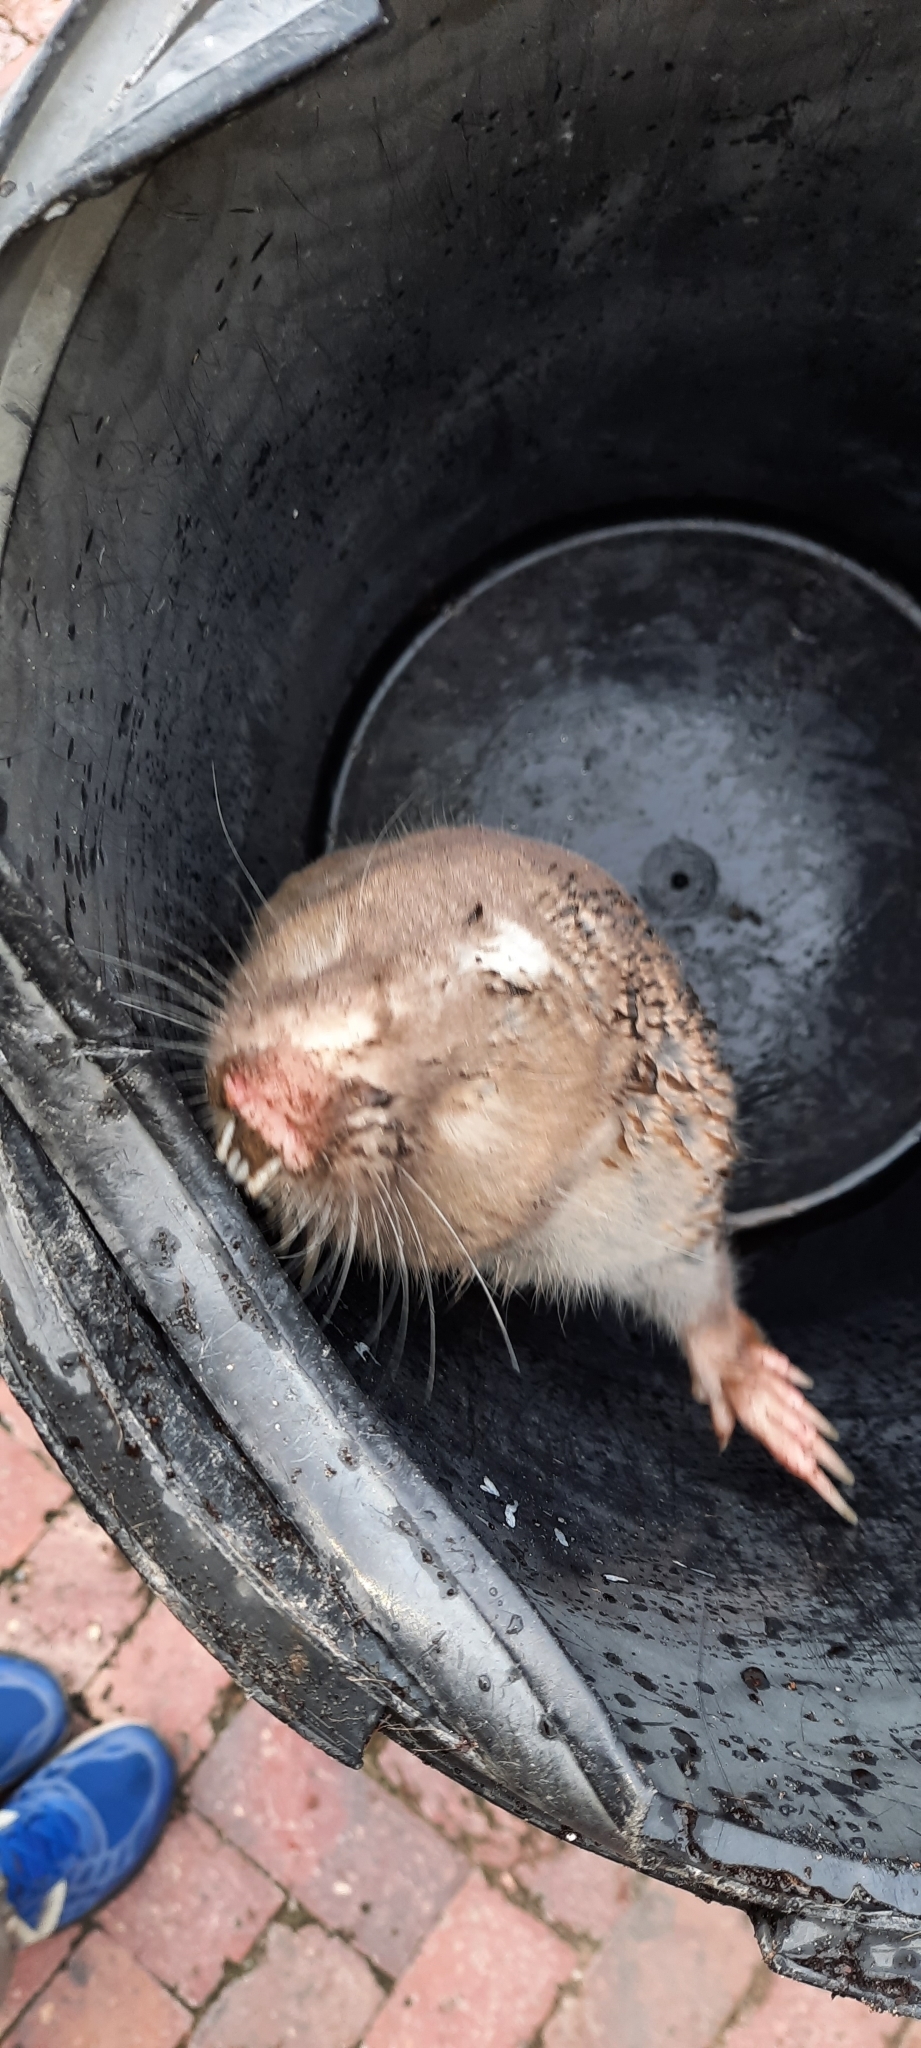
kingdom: Animalia
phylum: Chordata
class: Mammalia
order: Rodentia
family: Bathyergidae
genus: Bathyergus
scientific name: Bathyergus suillus
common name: Cape dune mole rat
